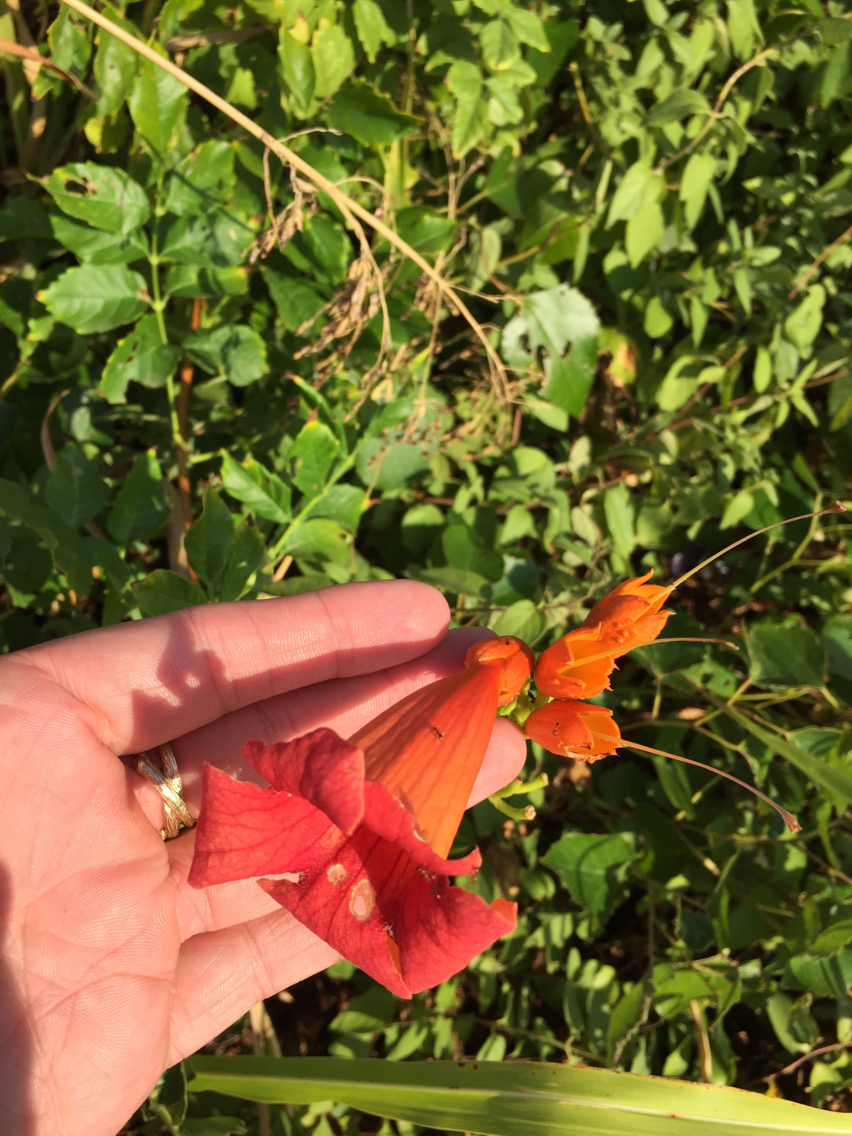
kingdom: Plantae
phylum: Tracheophyta
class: Magnoliopsida
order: Lamiales
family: Bignoniaceae
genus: Campsis
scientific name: Campsis radicans
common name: Trumpet-creeper
